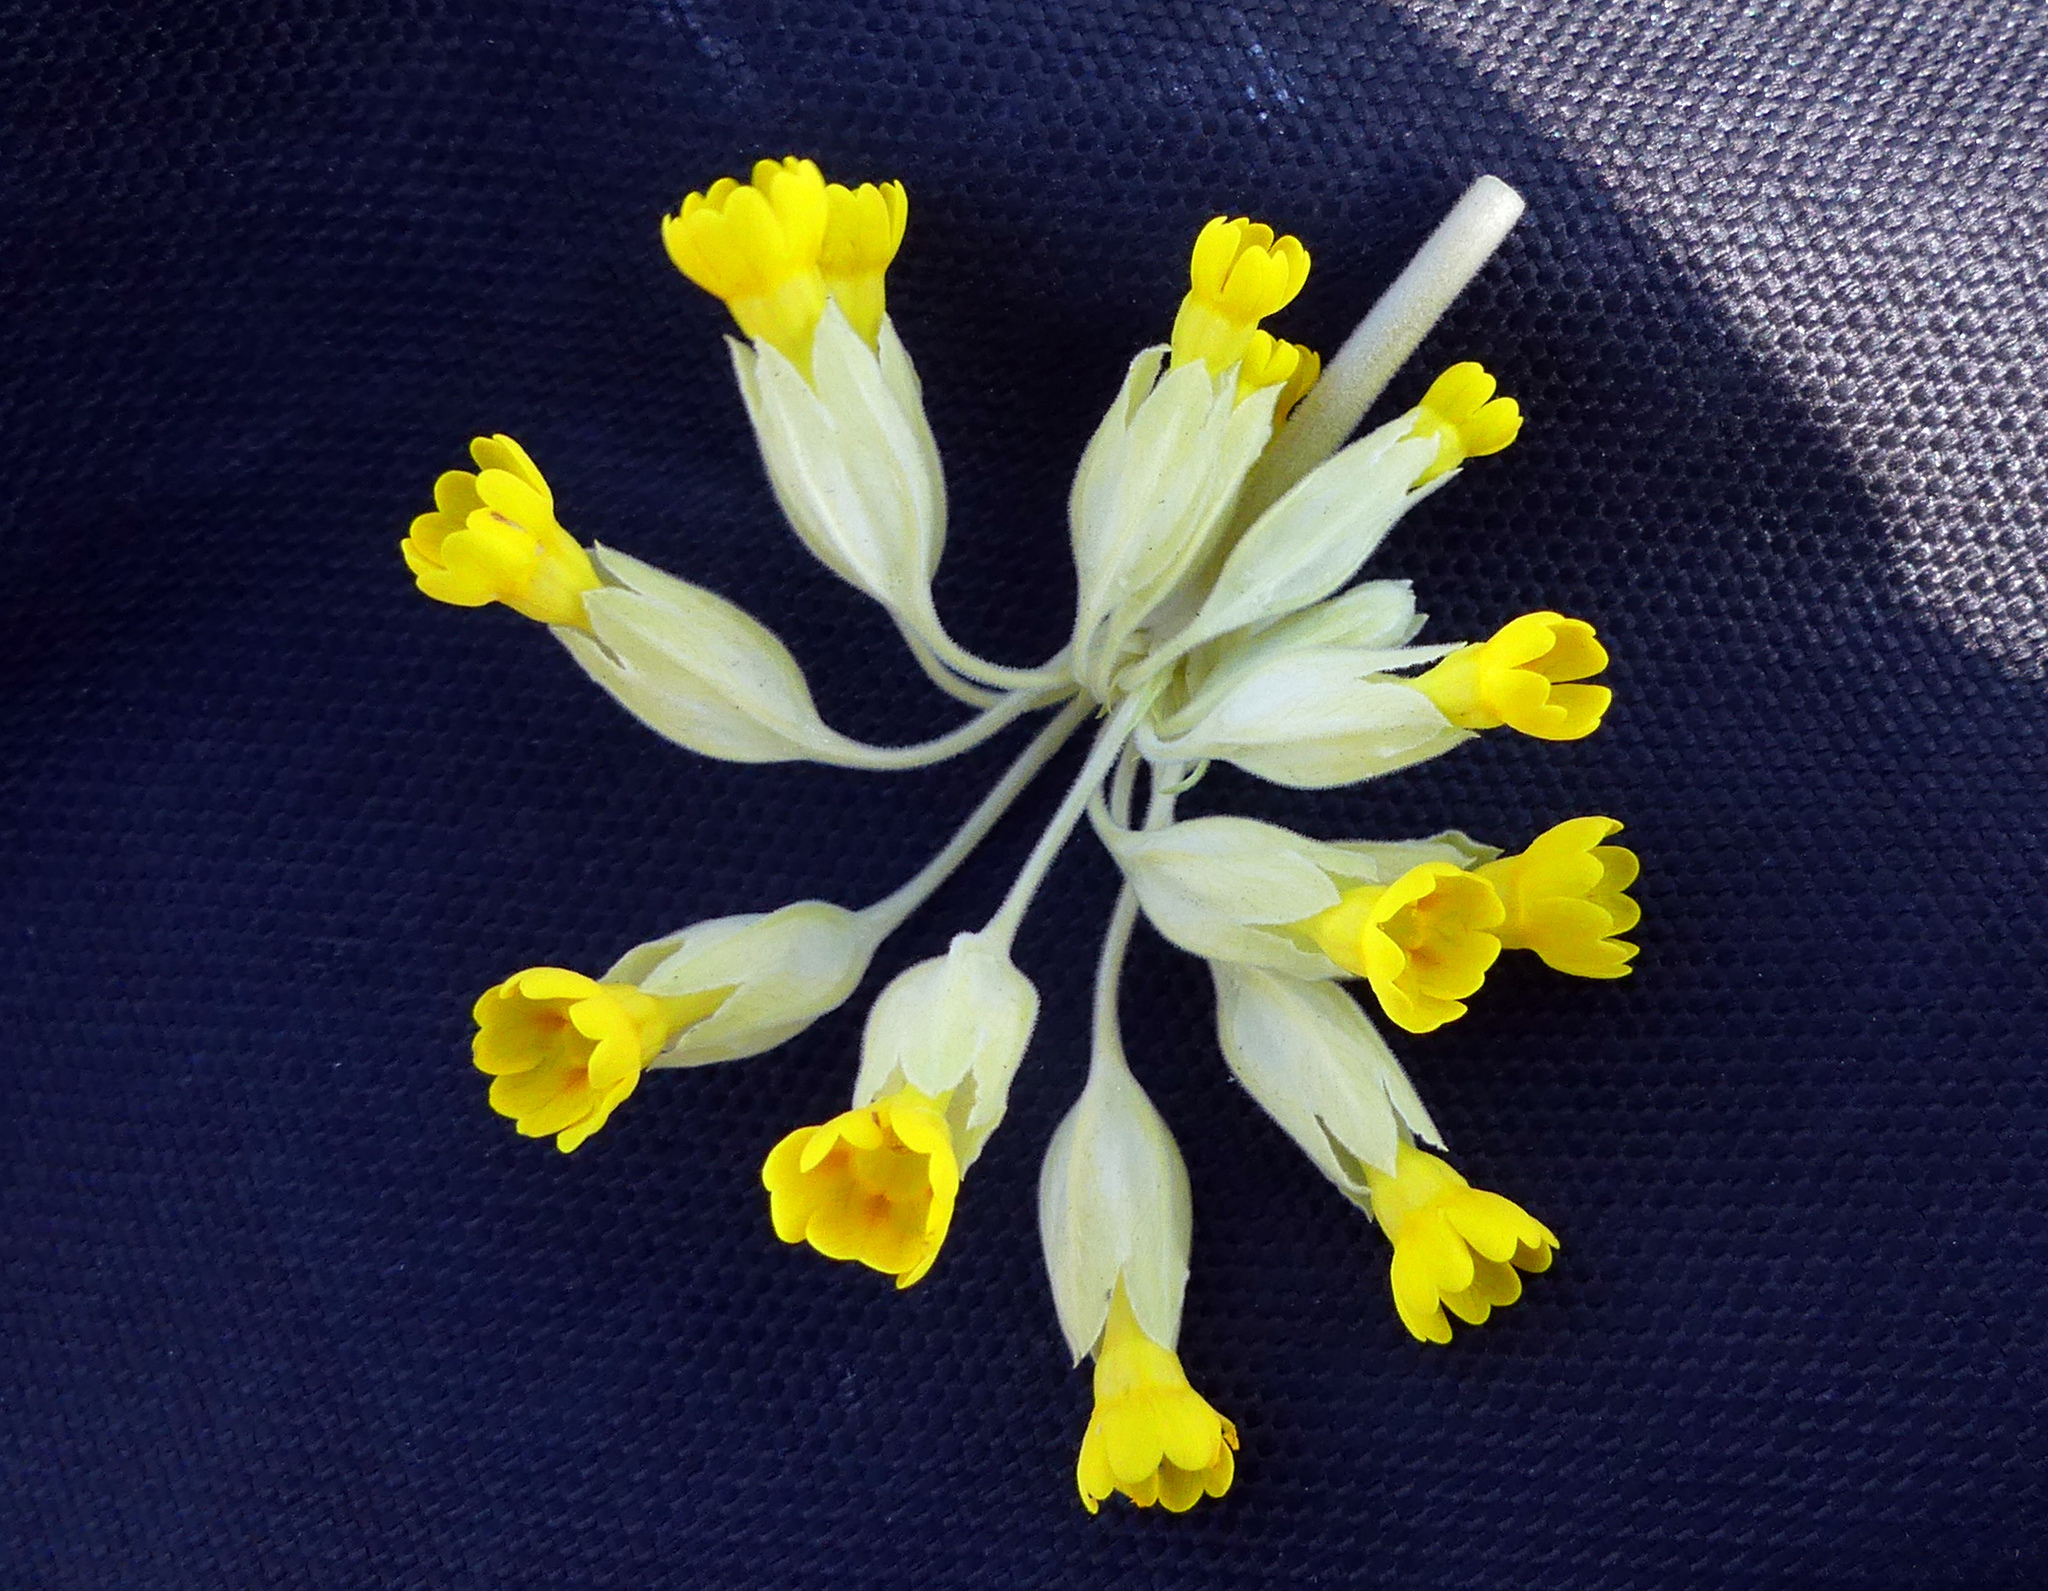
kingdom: Plantae
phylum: Tracheophyta
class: Magnoliopsida
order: Ericales
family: Primulaceae
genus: Primula
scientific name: Primula veris
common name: Cowslip
